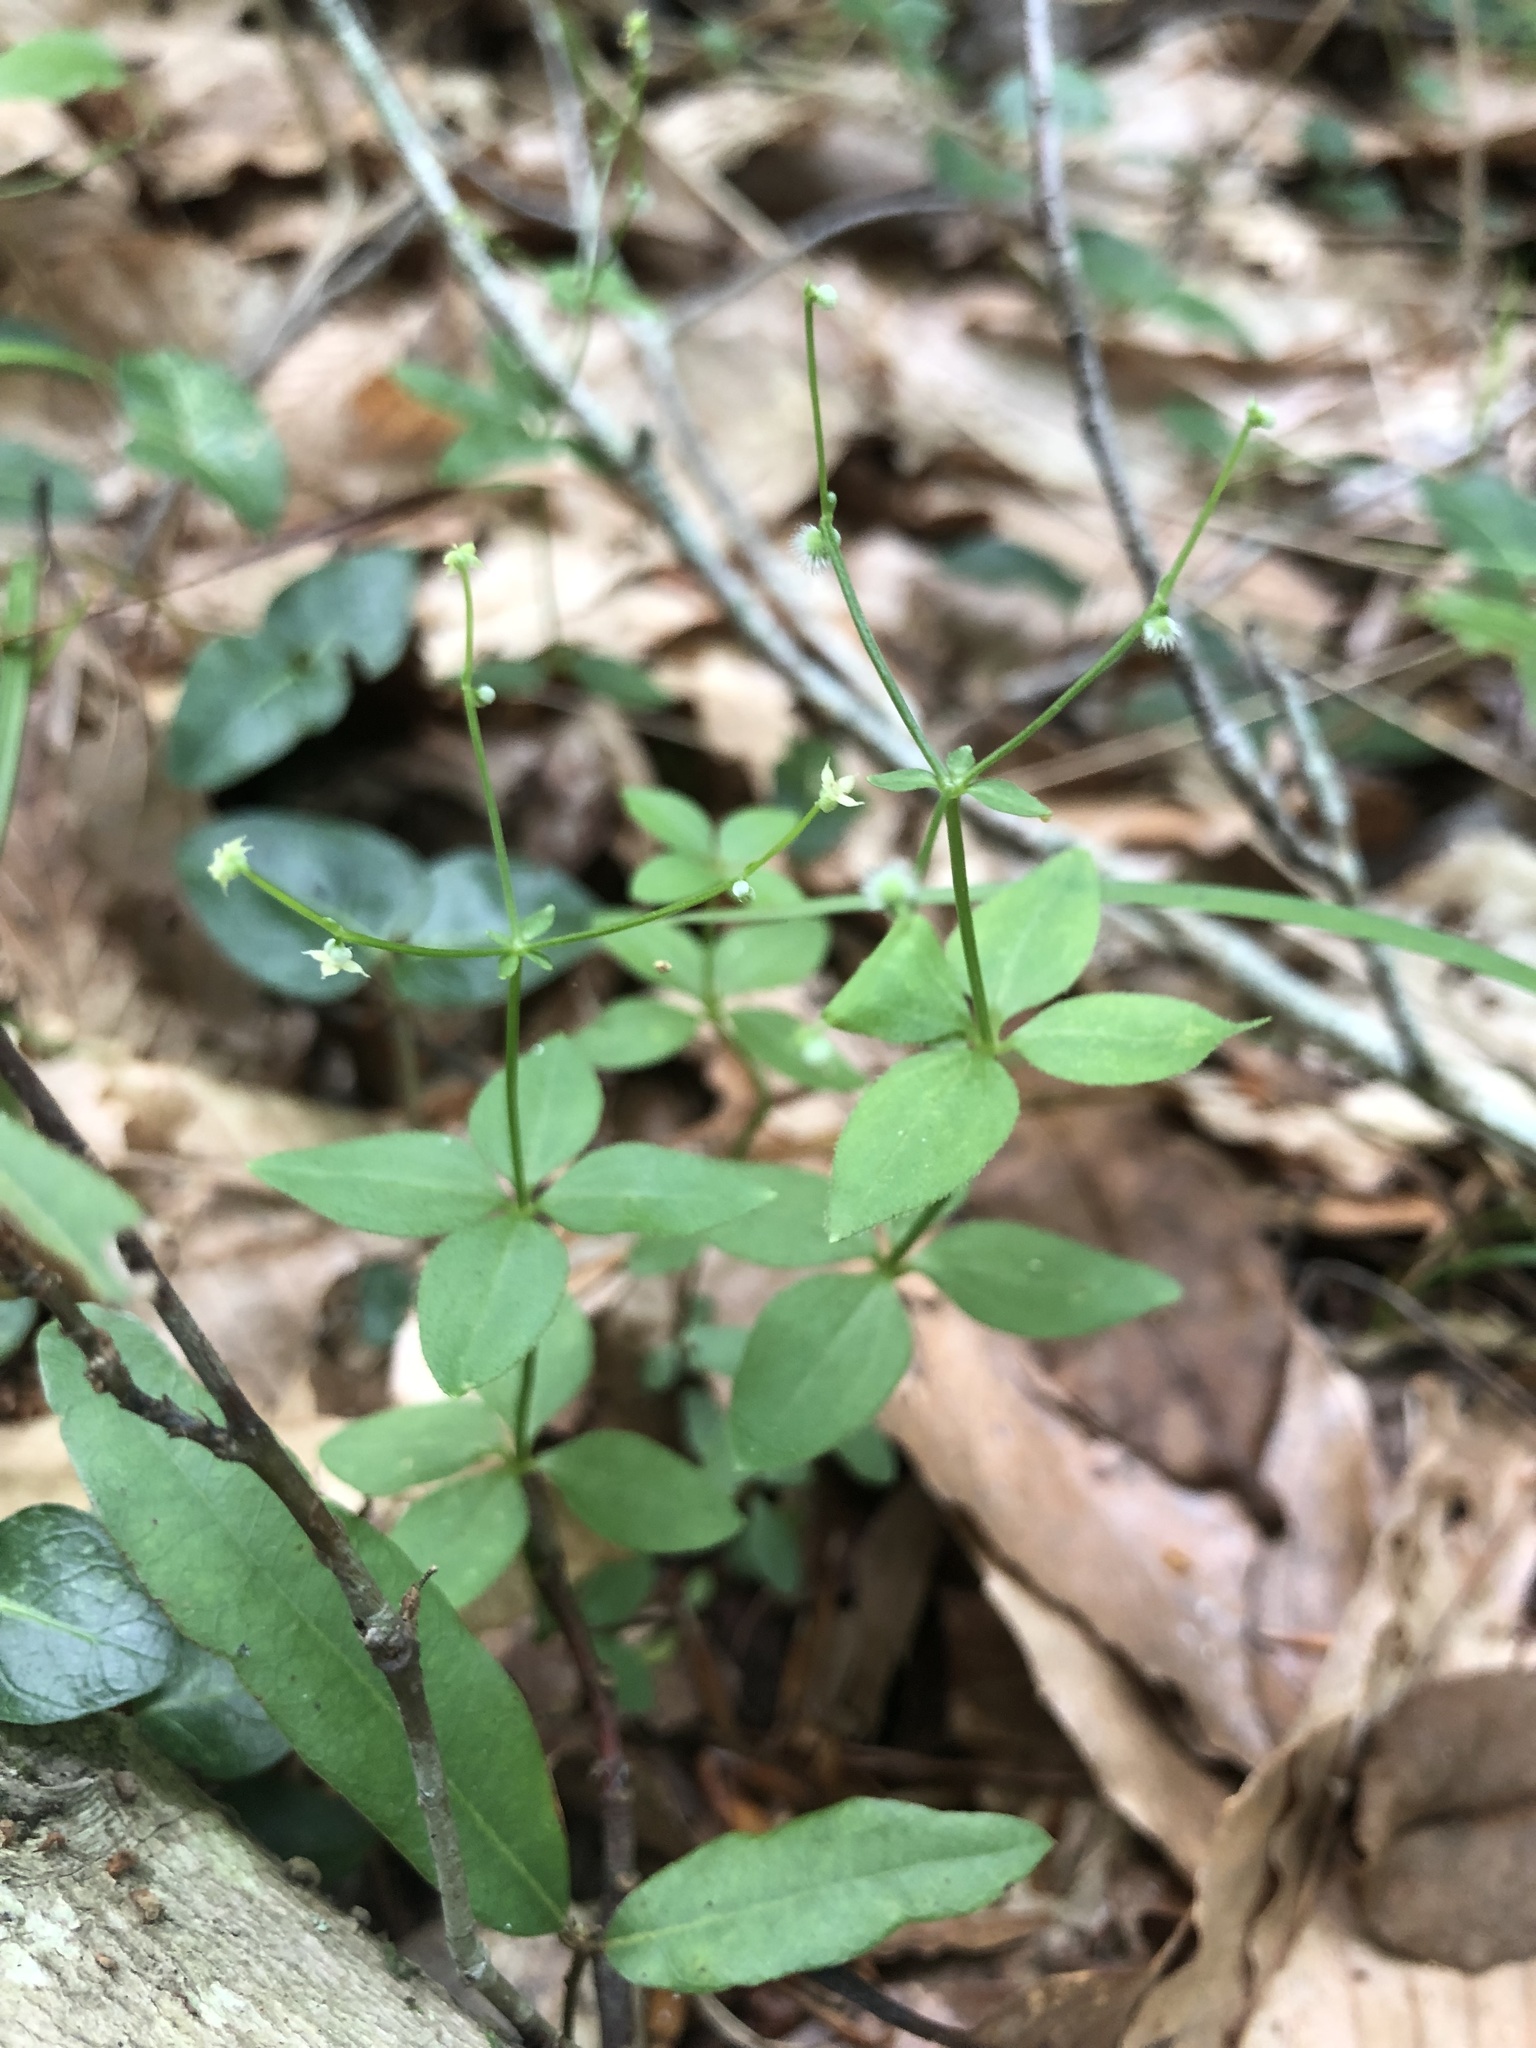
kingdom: Plantae
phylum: Tracheophyta
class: Magnoliopsida
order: Gentianales
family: Rubiaceae
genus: Galium
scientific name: Galium circaezans
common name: Forest bedstraw
